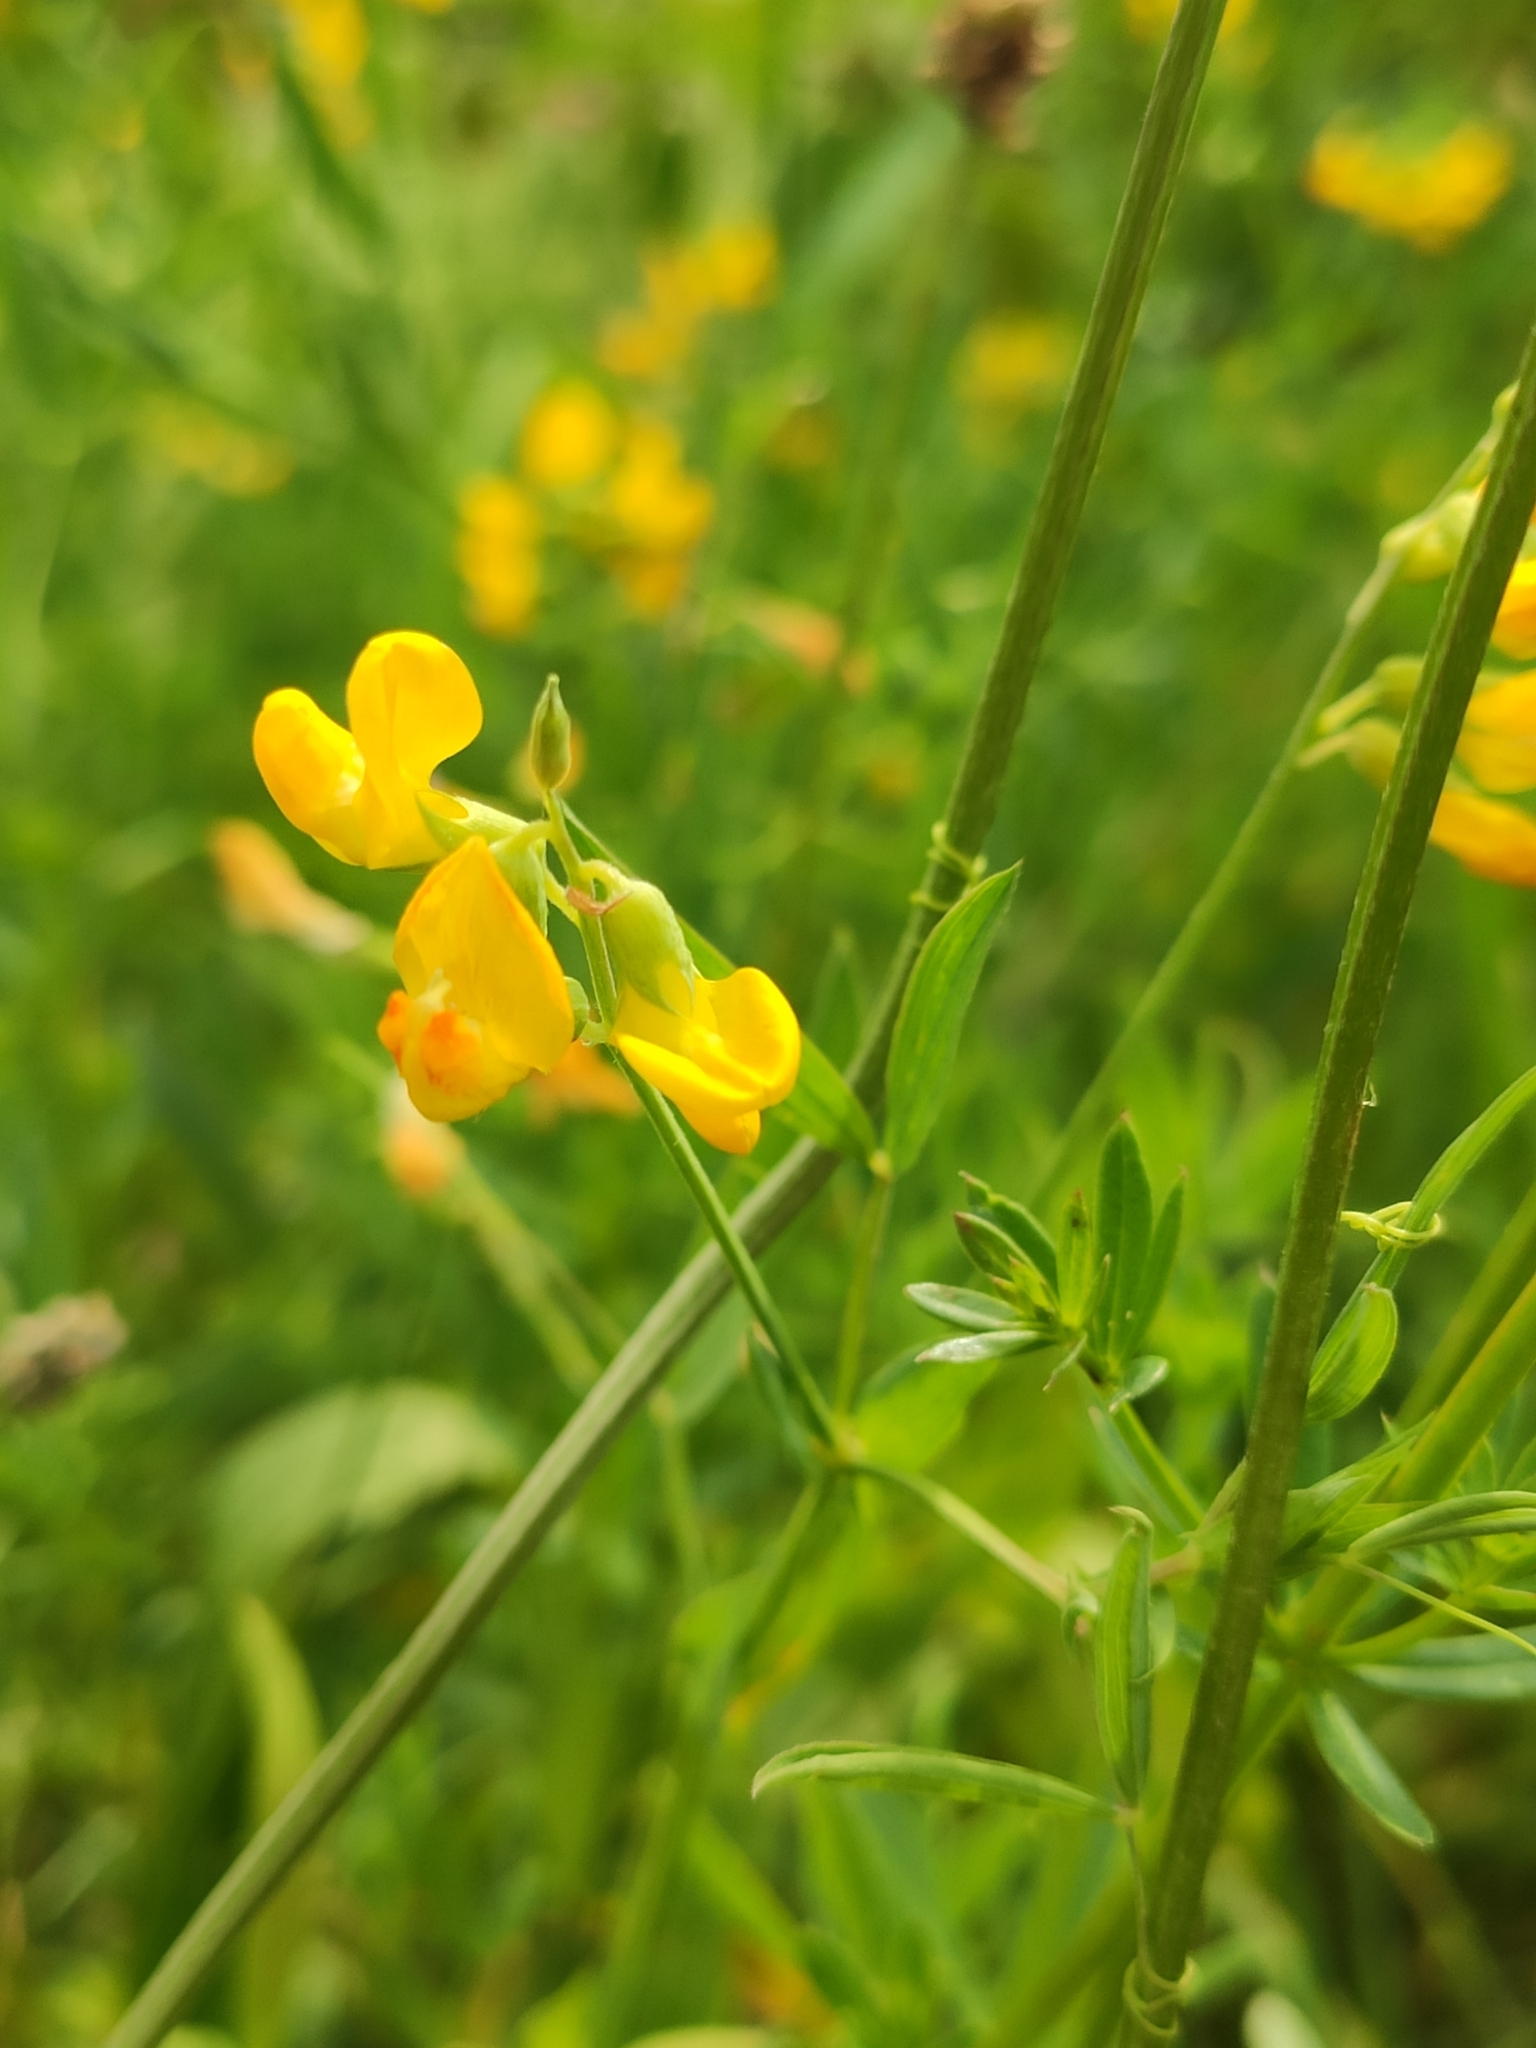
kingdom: Plantae
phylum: Tracheophyta
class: Magnoliopsida
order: Fabales
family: Fabaceae
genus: Lathyrus
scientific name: Lathyrus pratensis
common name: Meadow vetchling
